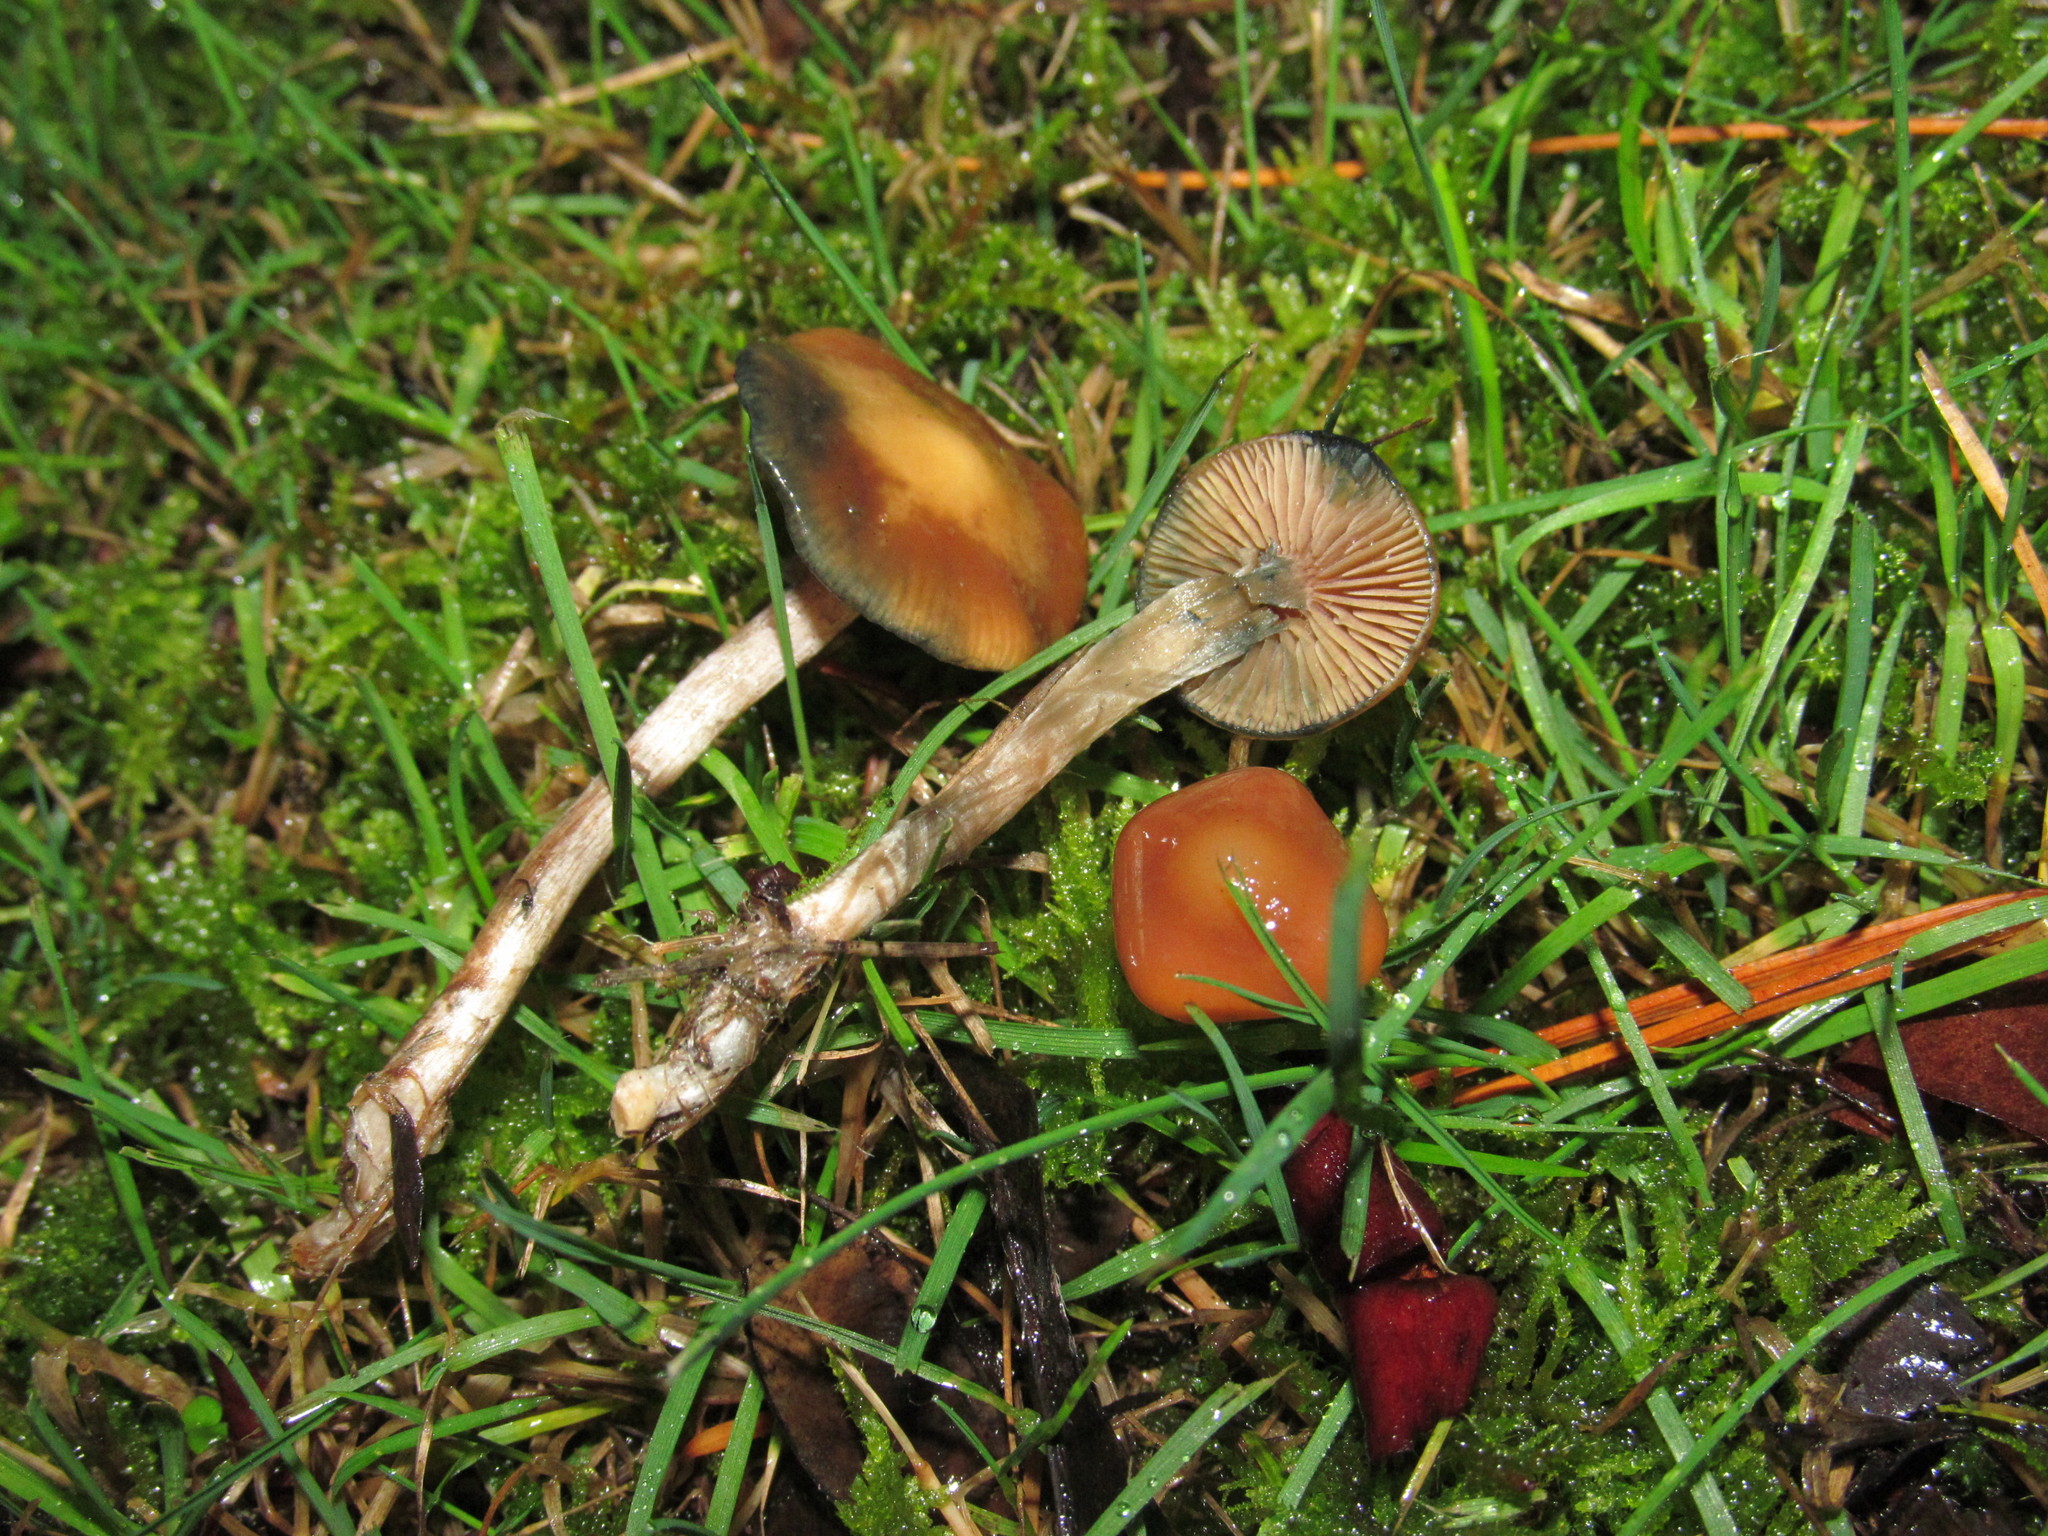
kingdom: Fungi
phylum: Basidiomycota
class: Agaricomycetes
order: Agaricales
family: Hymenogastraceae
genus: Psilocybe
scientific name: Psilocybe cyanescens
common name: Blueleg brownie
